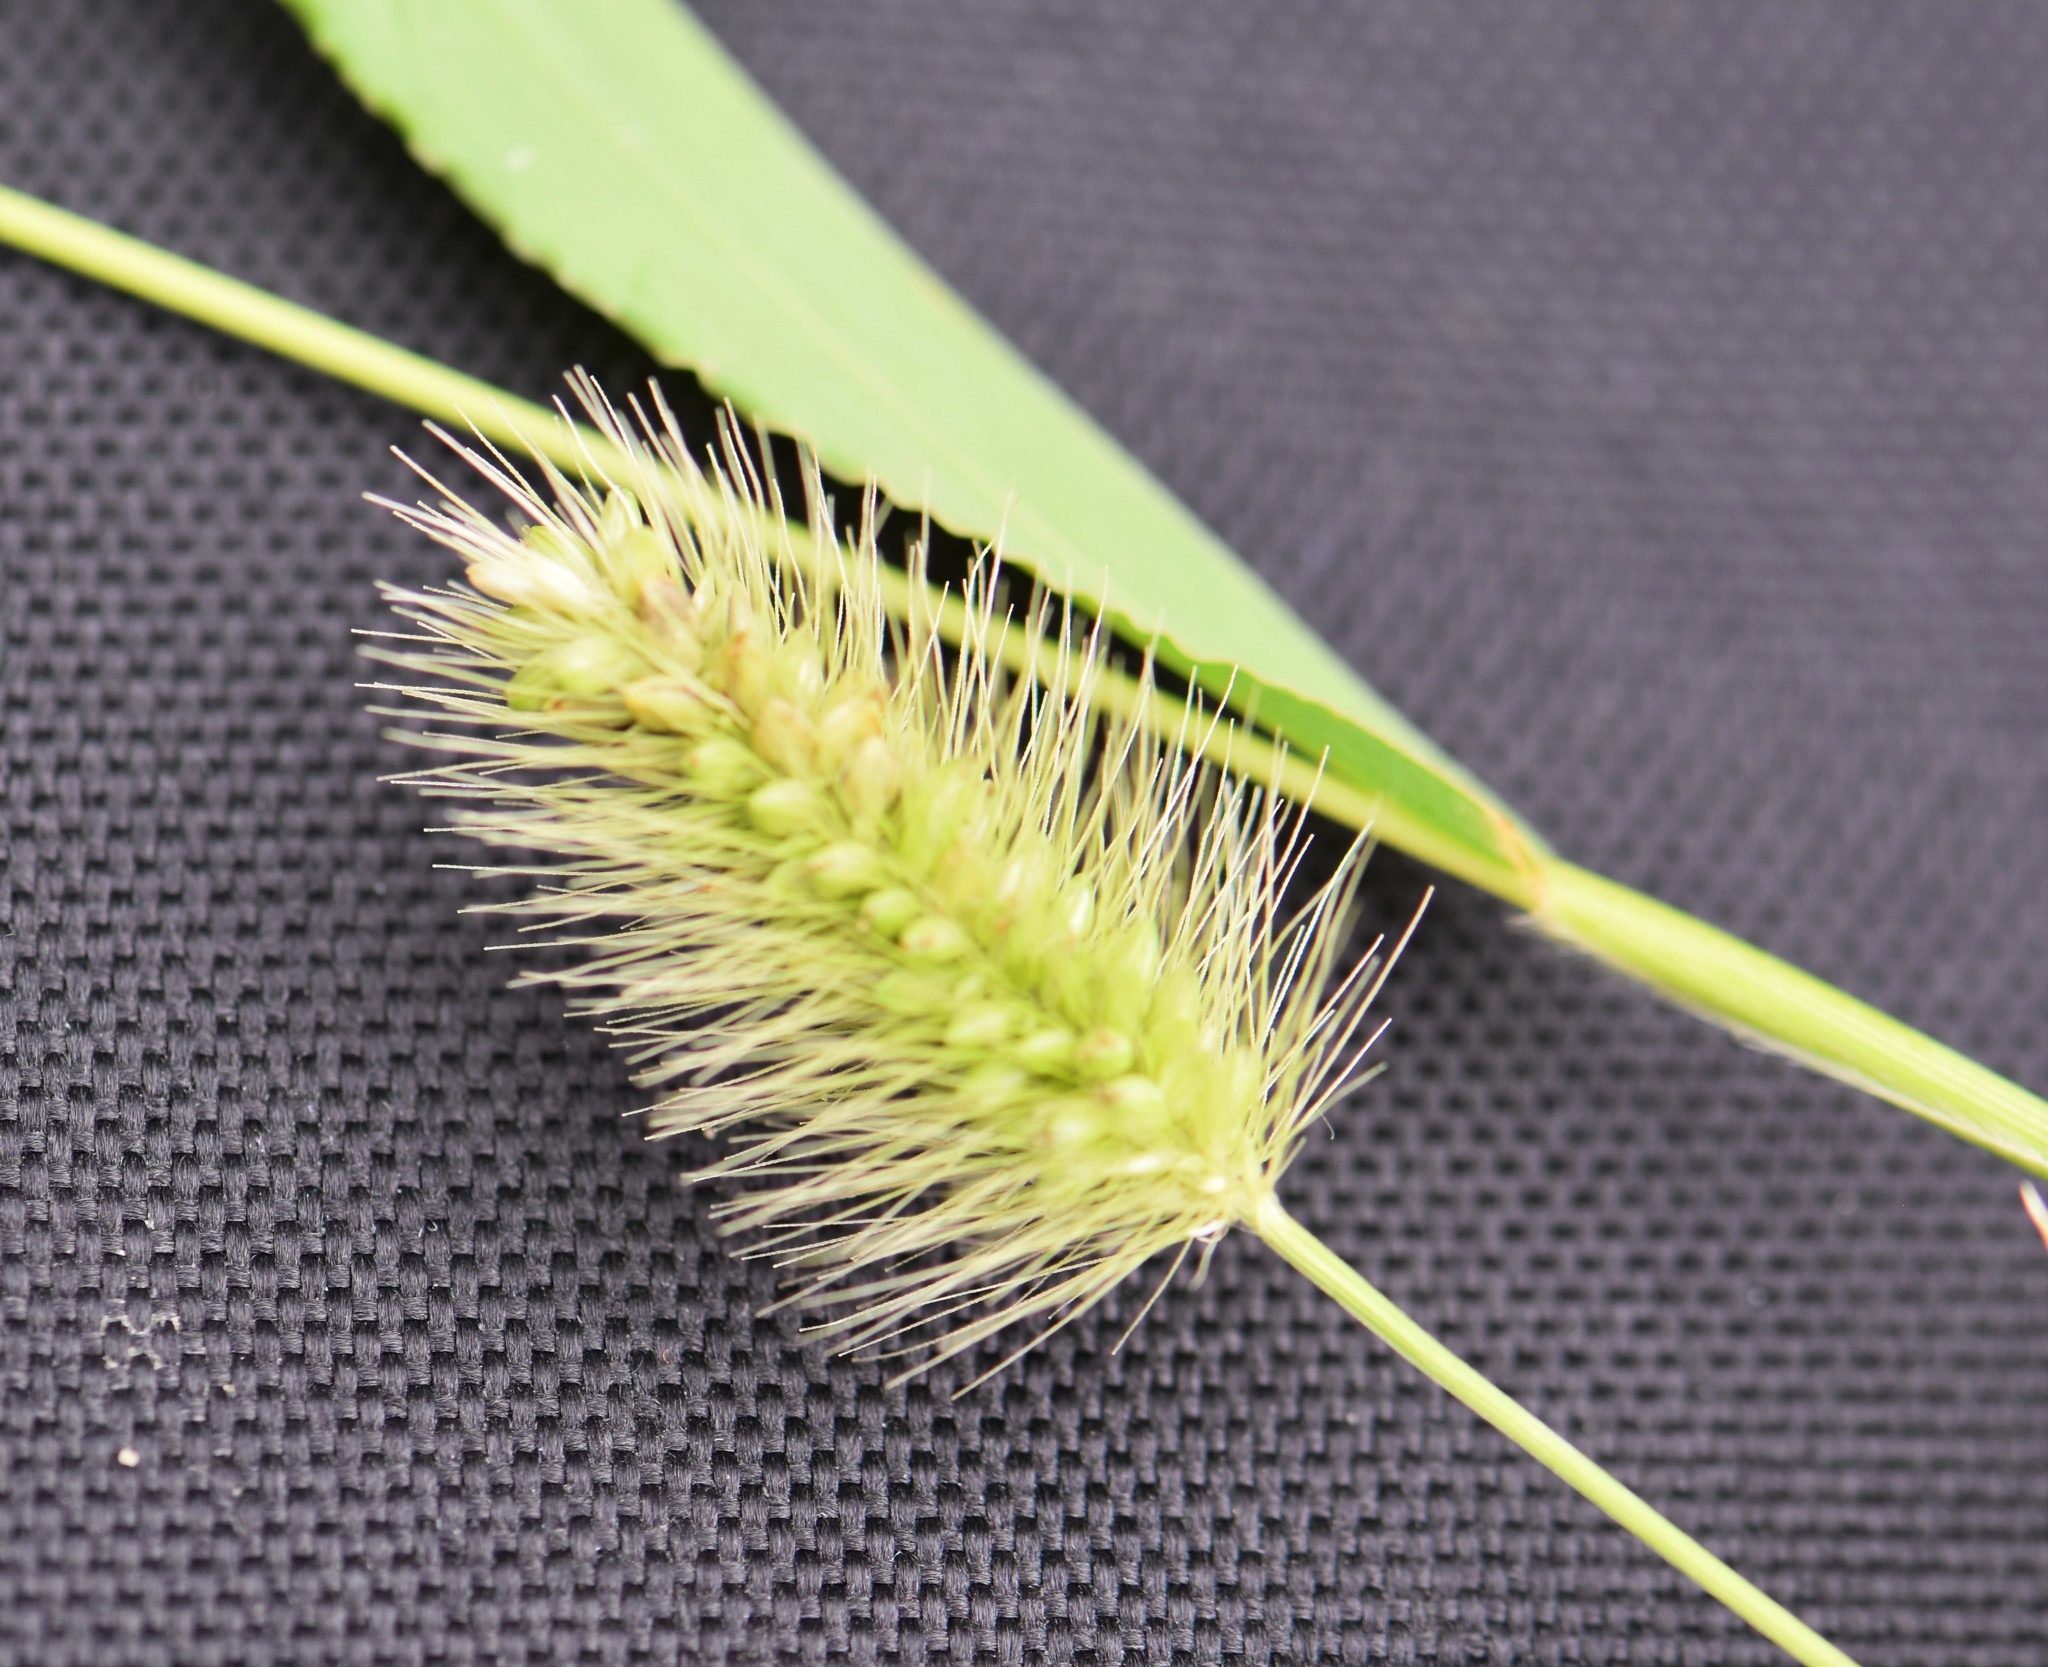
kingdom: Plantae
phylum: Tracheophyta
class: Liliopsida
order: Poales
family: Poaceae
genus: Setaria
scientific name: Setaria viridis
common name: Green bristlegrass
